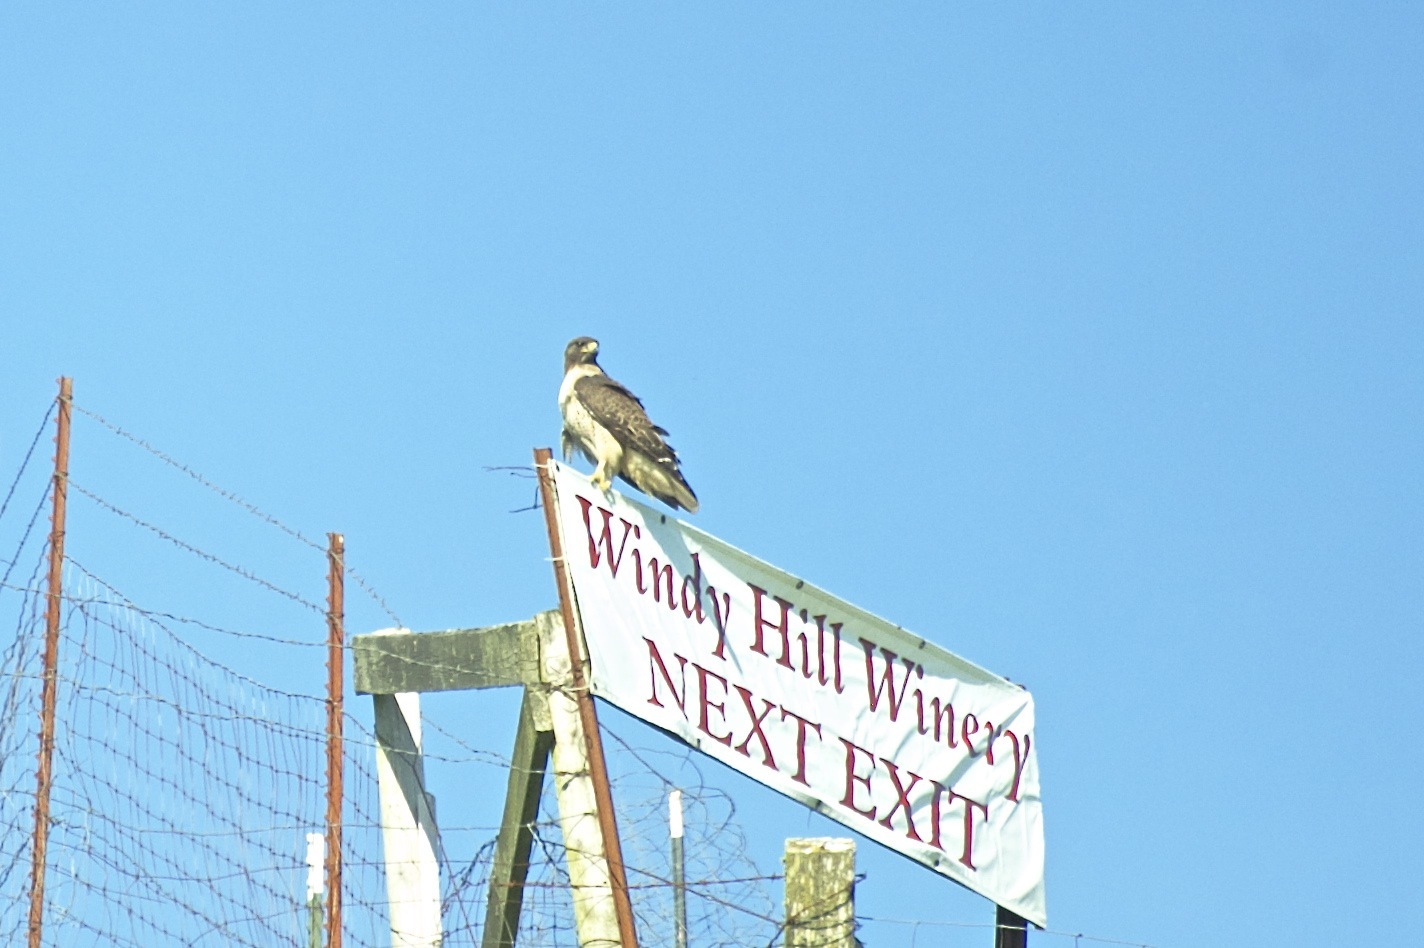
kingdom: Animalia
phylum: Chordata
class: Aves
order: Accipitriformes
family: Accipitridae
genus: Buteo
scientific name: Buteo jamaicensis
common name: Red-tailed hawk
